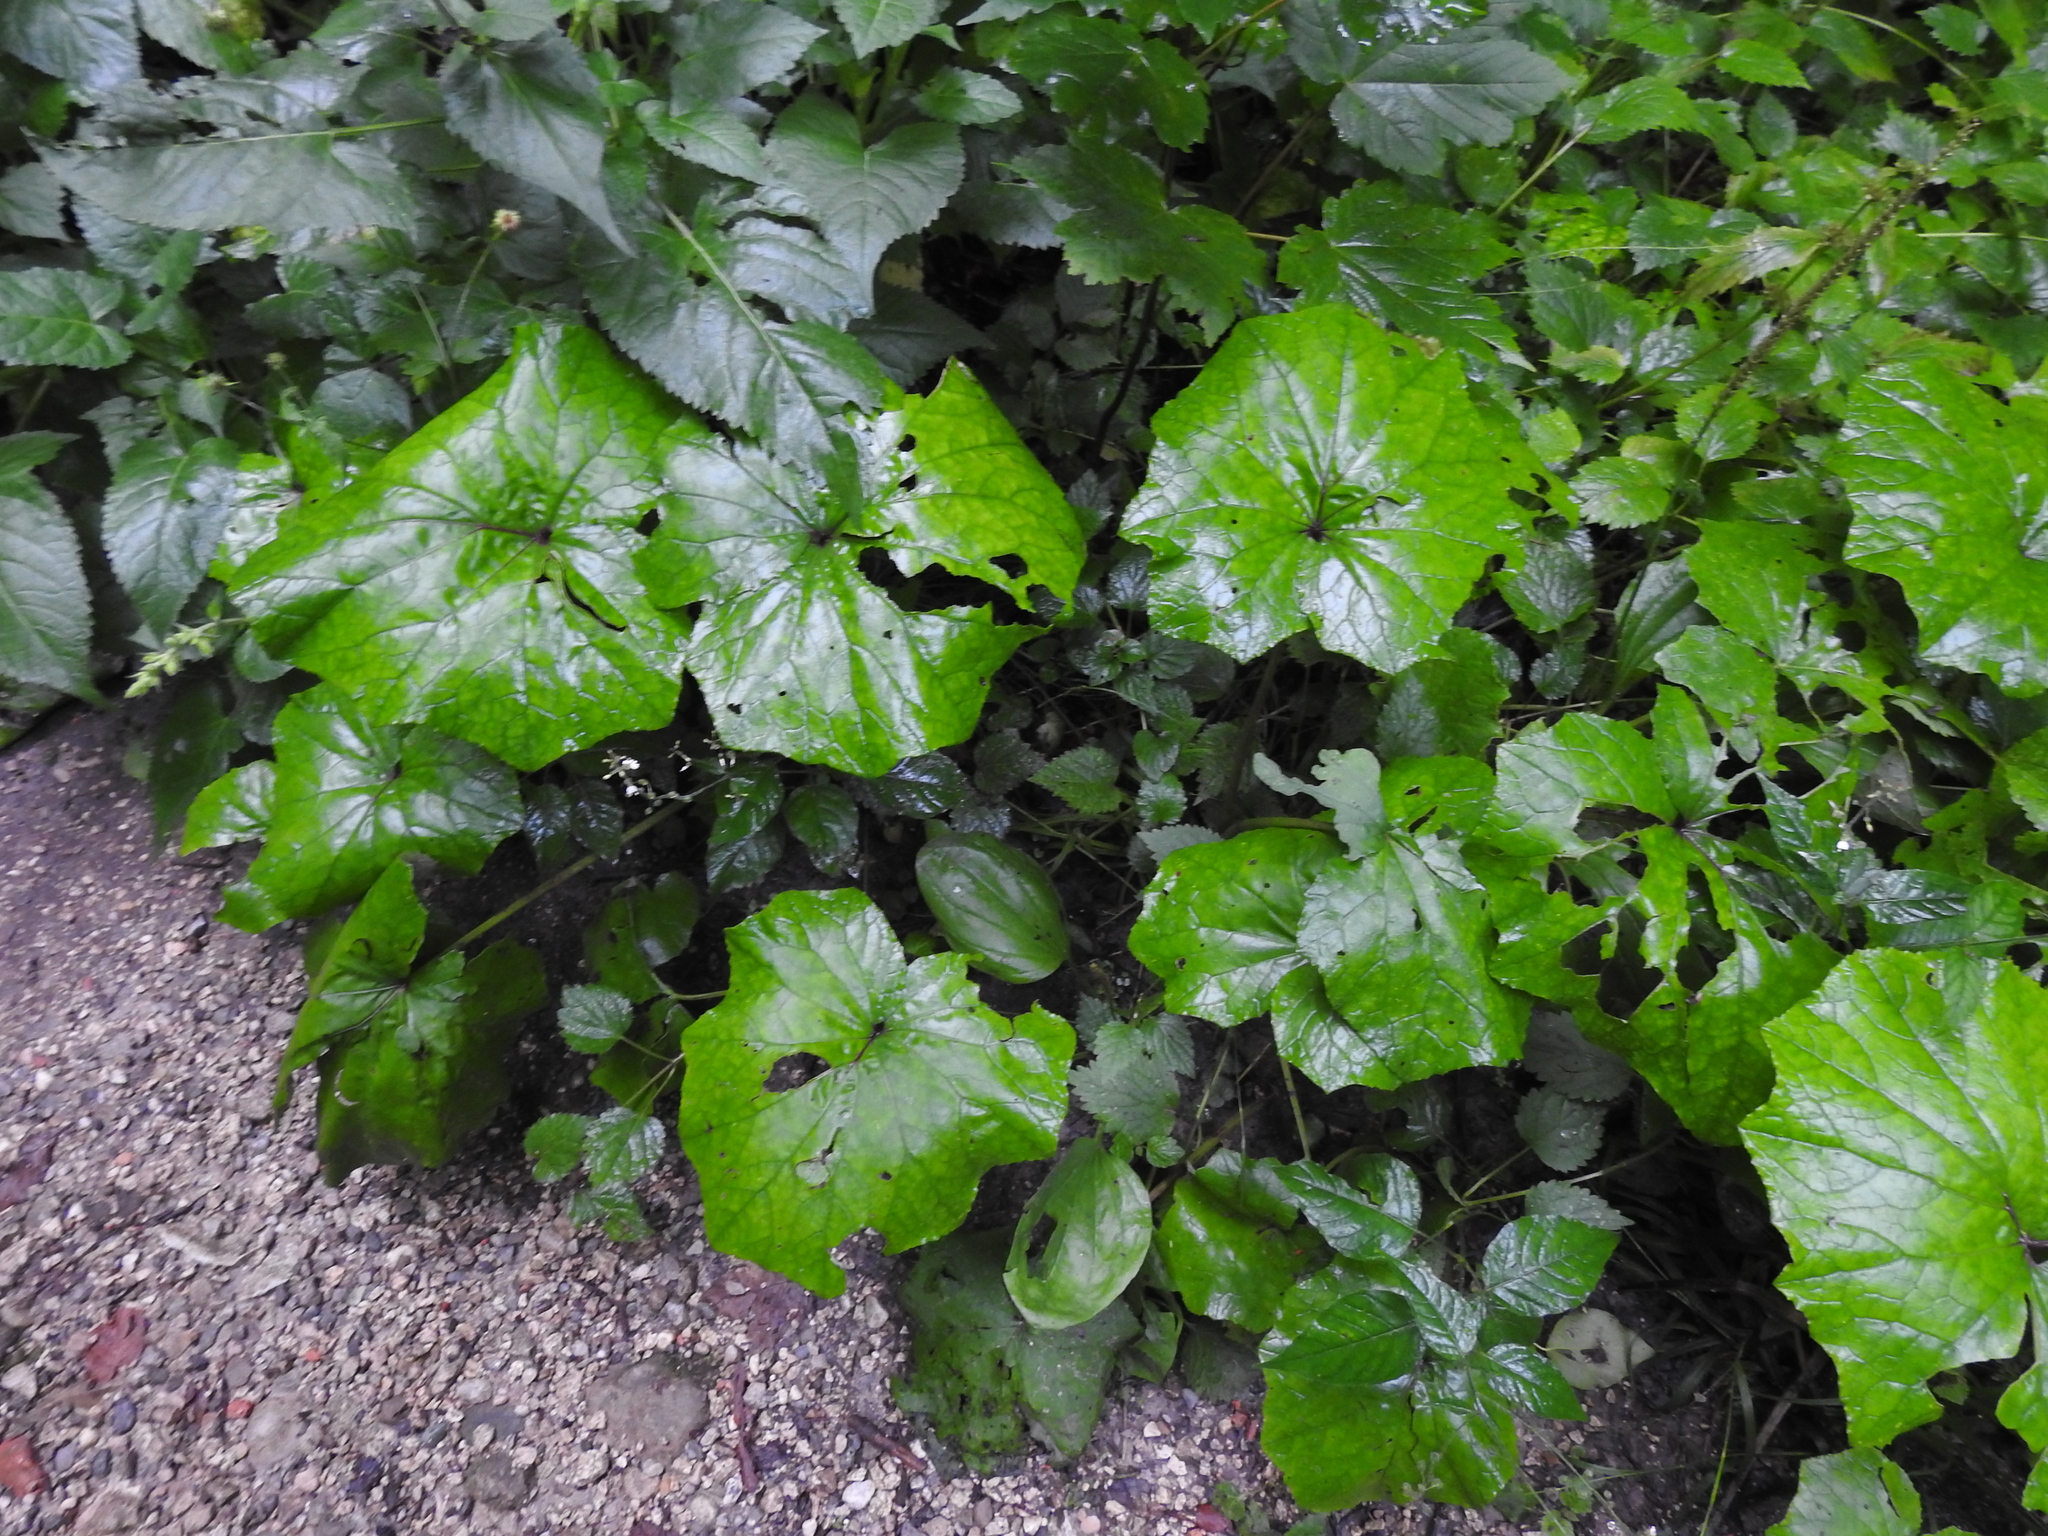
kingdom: Plantae
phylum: Tracheophyta
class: Magnoliopsida
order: Asterales
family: Asteraceae
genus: Tussilago
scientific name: Tussilago farfara
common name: Coltsfoot
